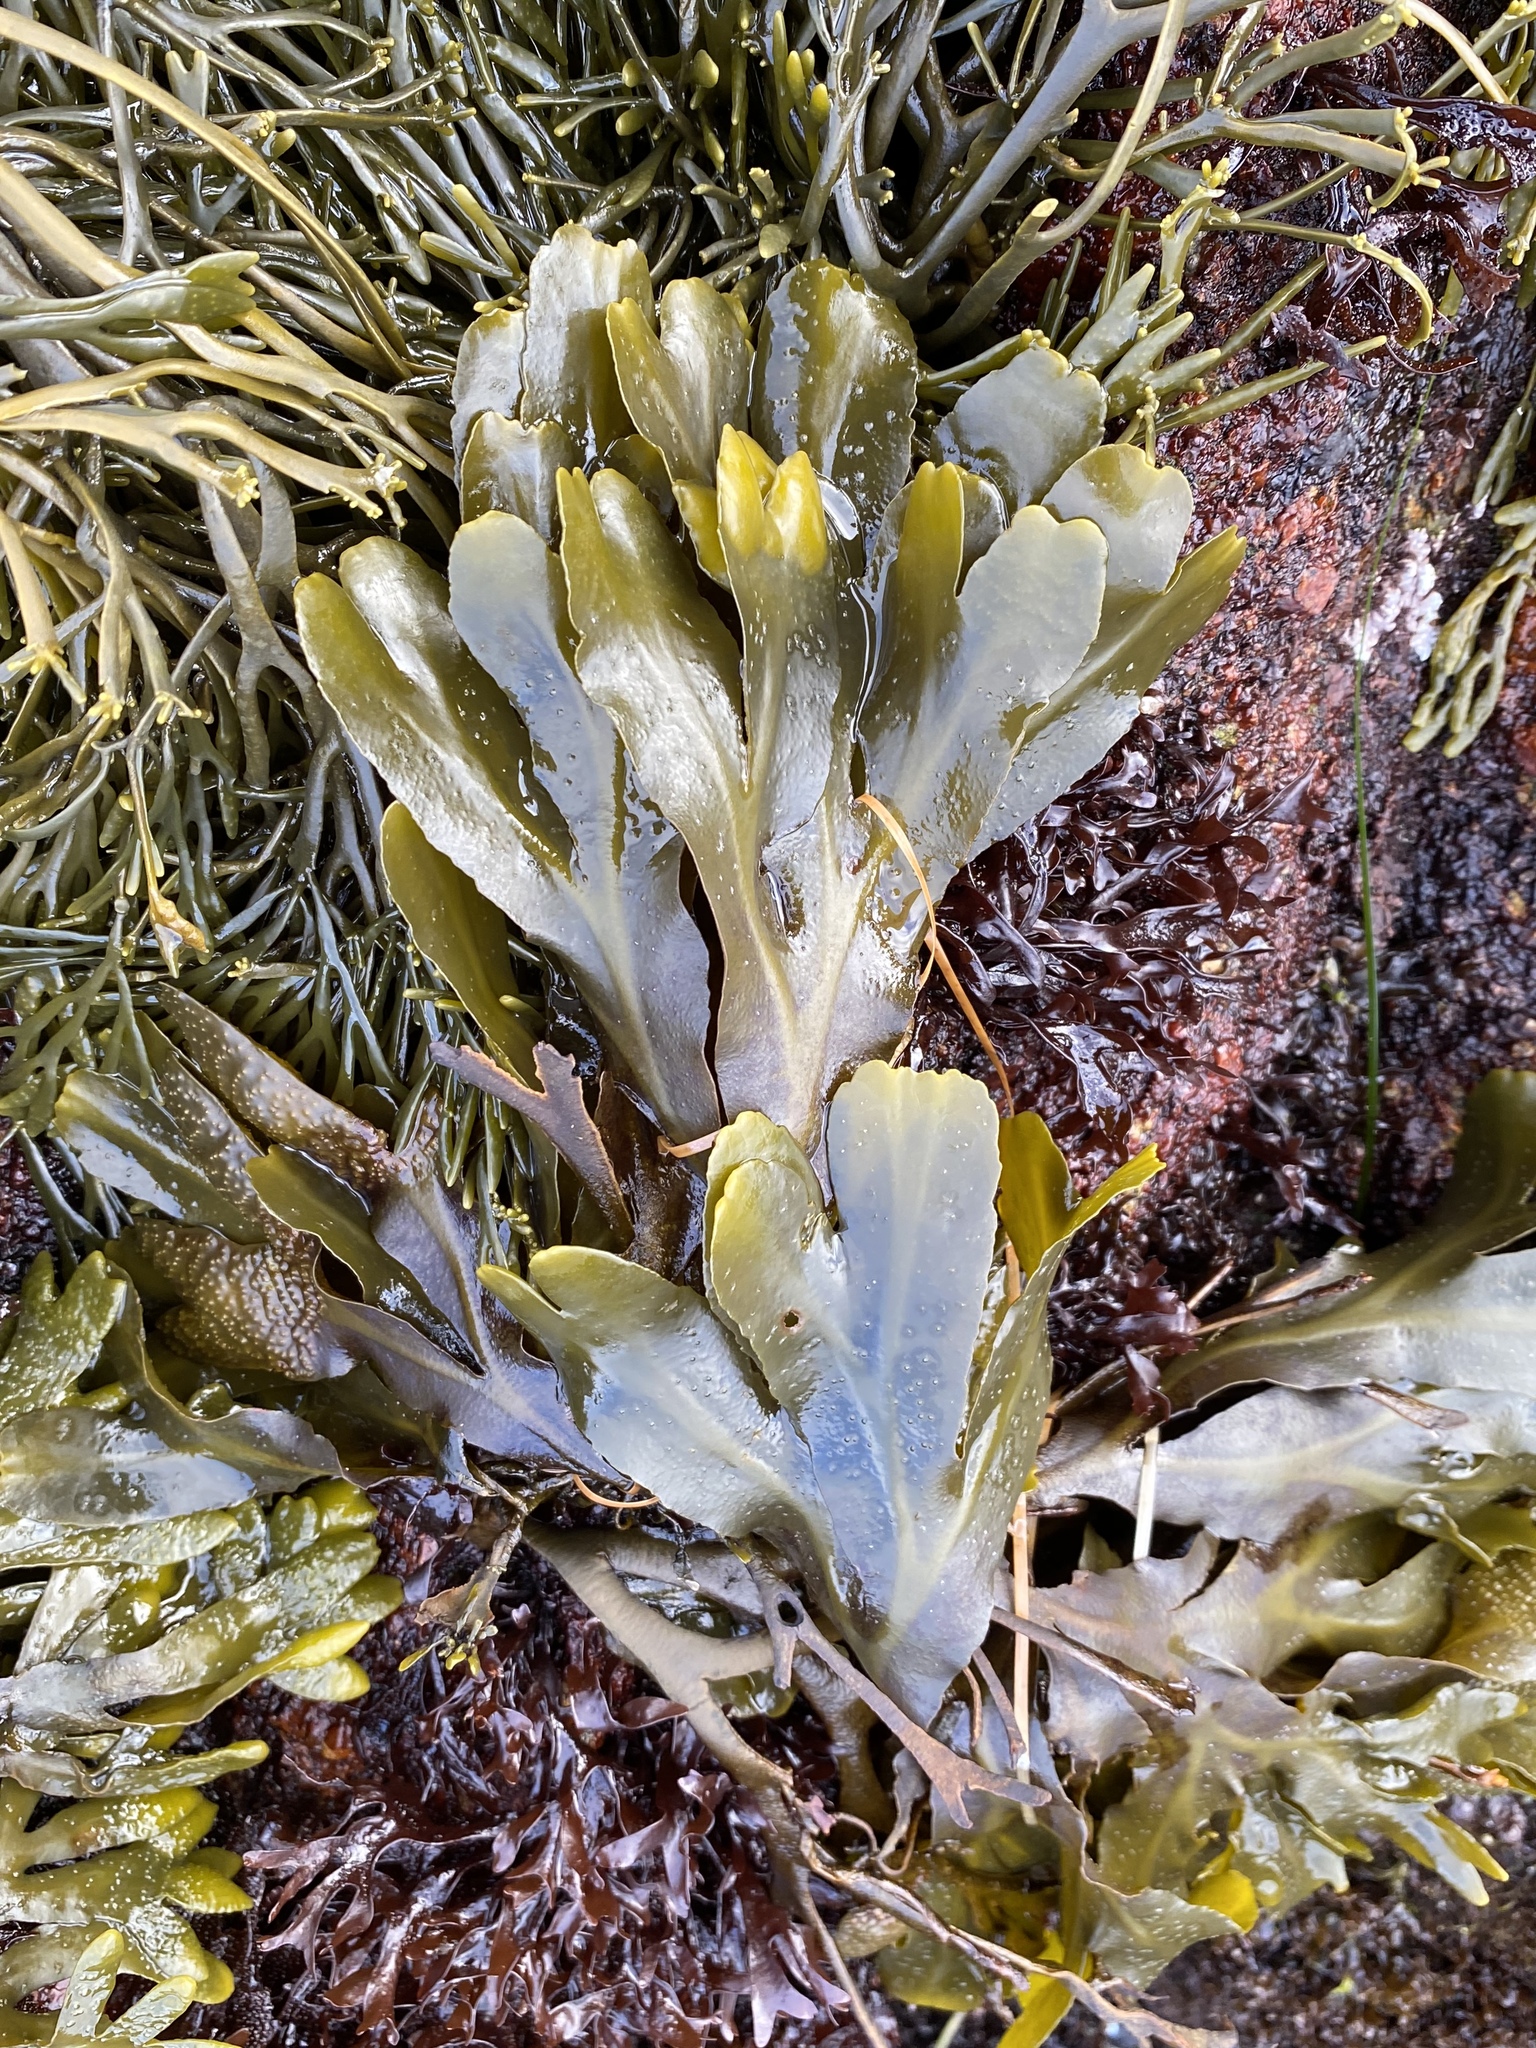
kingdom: Chromista
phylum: Ochrophyta
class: Phaeophyceae
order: Fucales
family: Fucaceae
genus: Fucus
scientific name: Fucus distichus
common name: Rockweed
